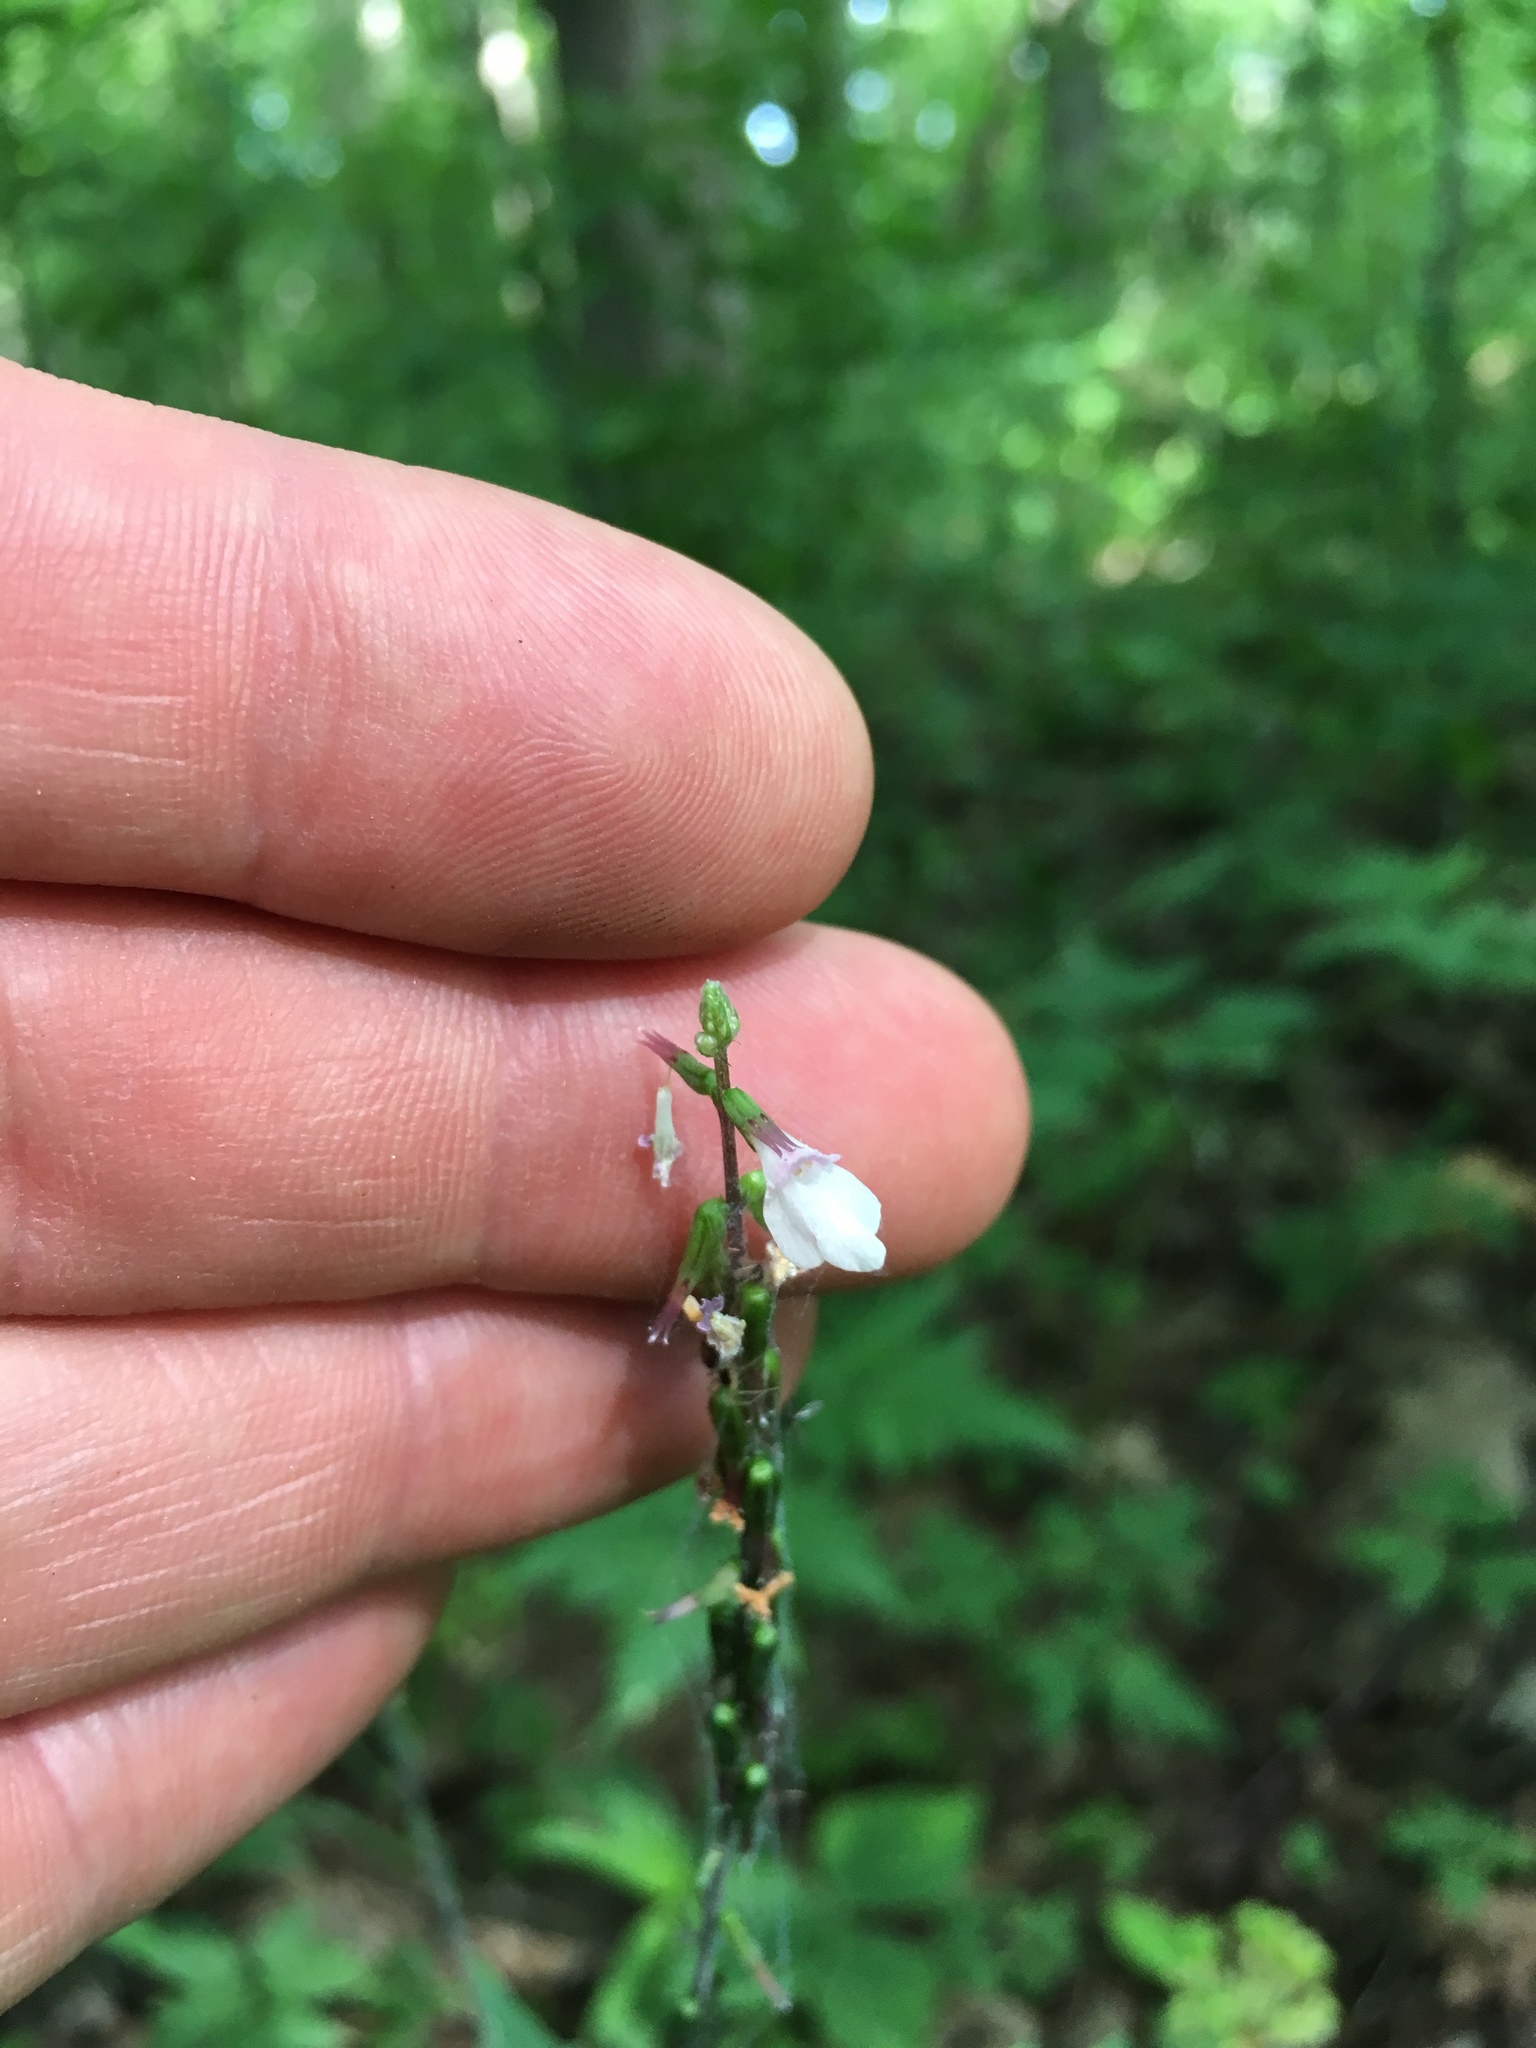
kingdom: Plantae
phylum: Tracheophyta
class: Magnoliopsida
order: Lamiales
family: Phrymaceae
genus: Phryma
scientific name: Phryma leptostachya
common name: American lopseed
